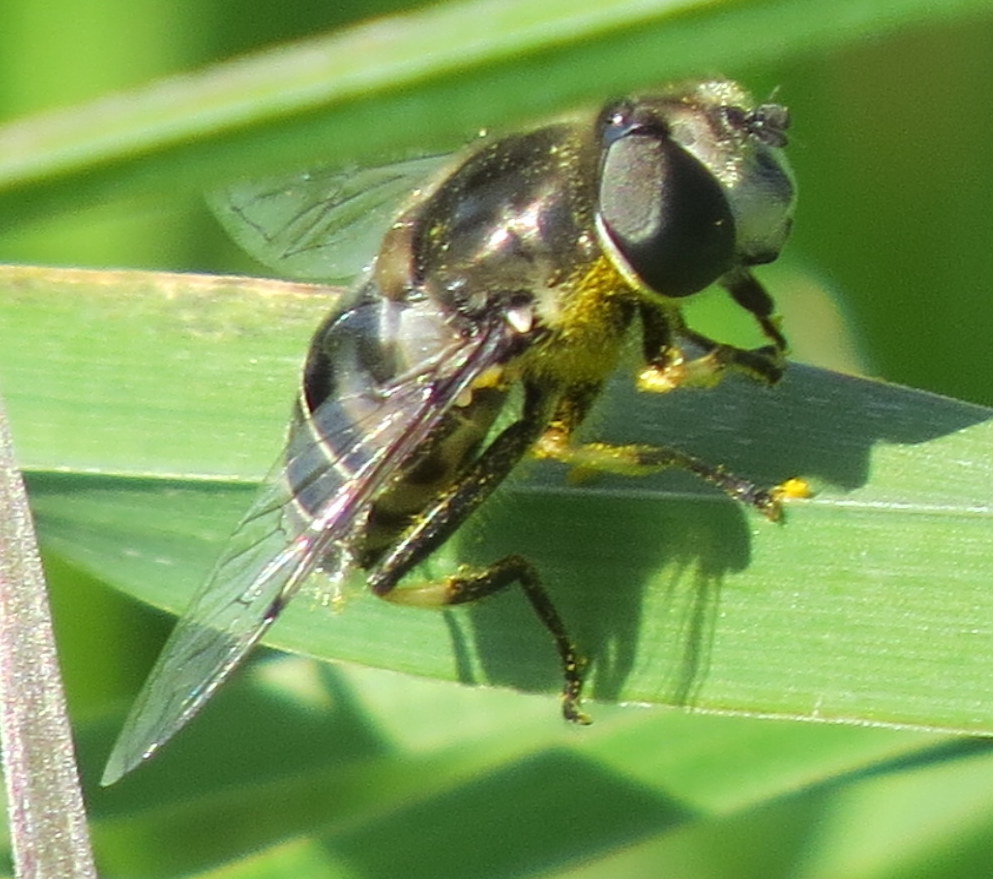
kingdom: Animalia
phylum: Arthropoda
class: Insecta
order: Diptera
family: Syrphidae
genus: Eristalis
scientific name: Eristalis dimidiata
